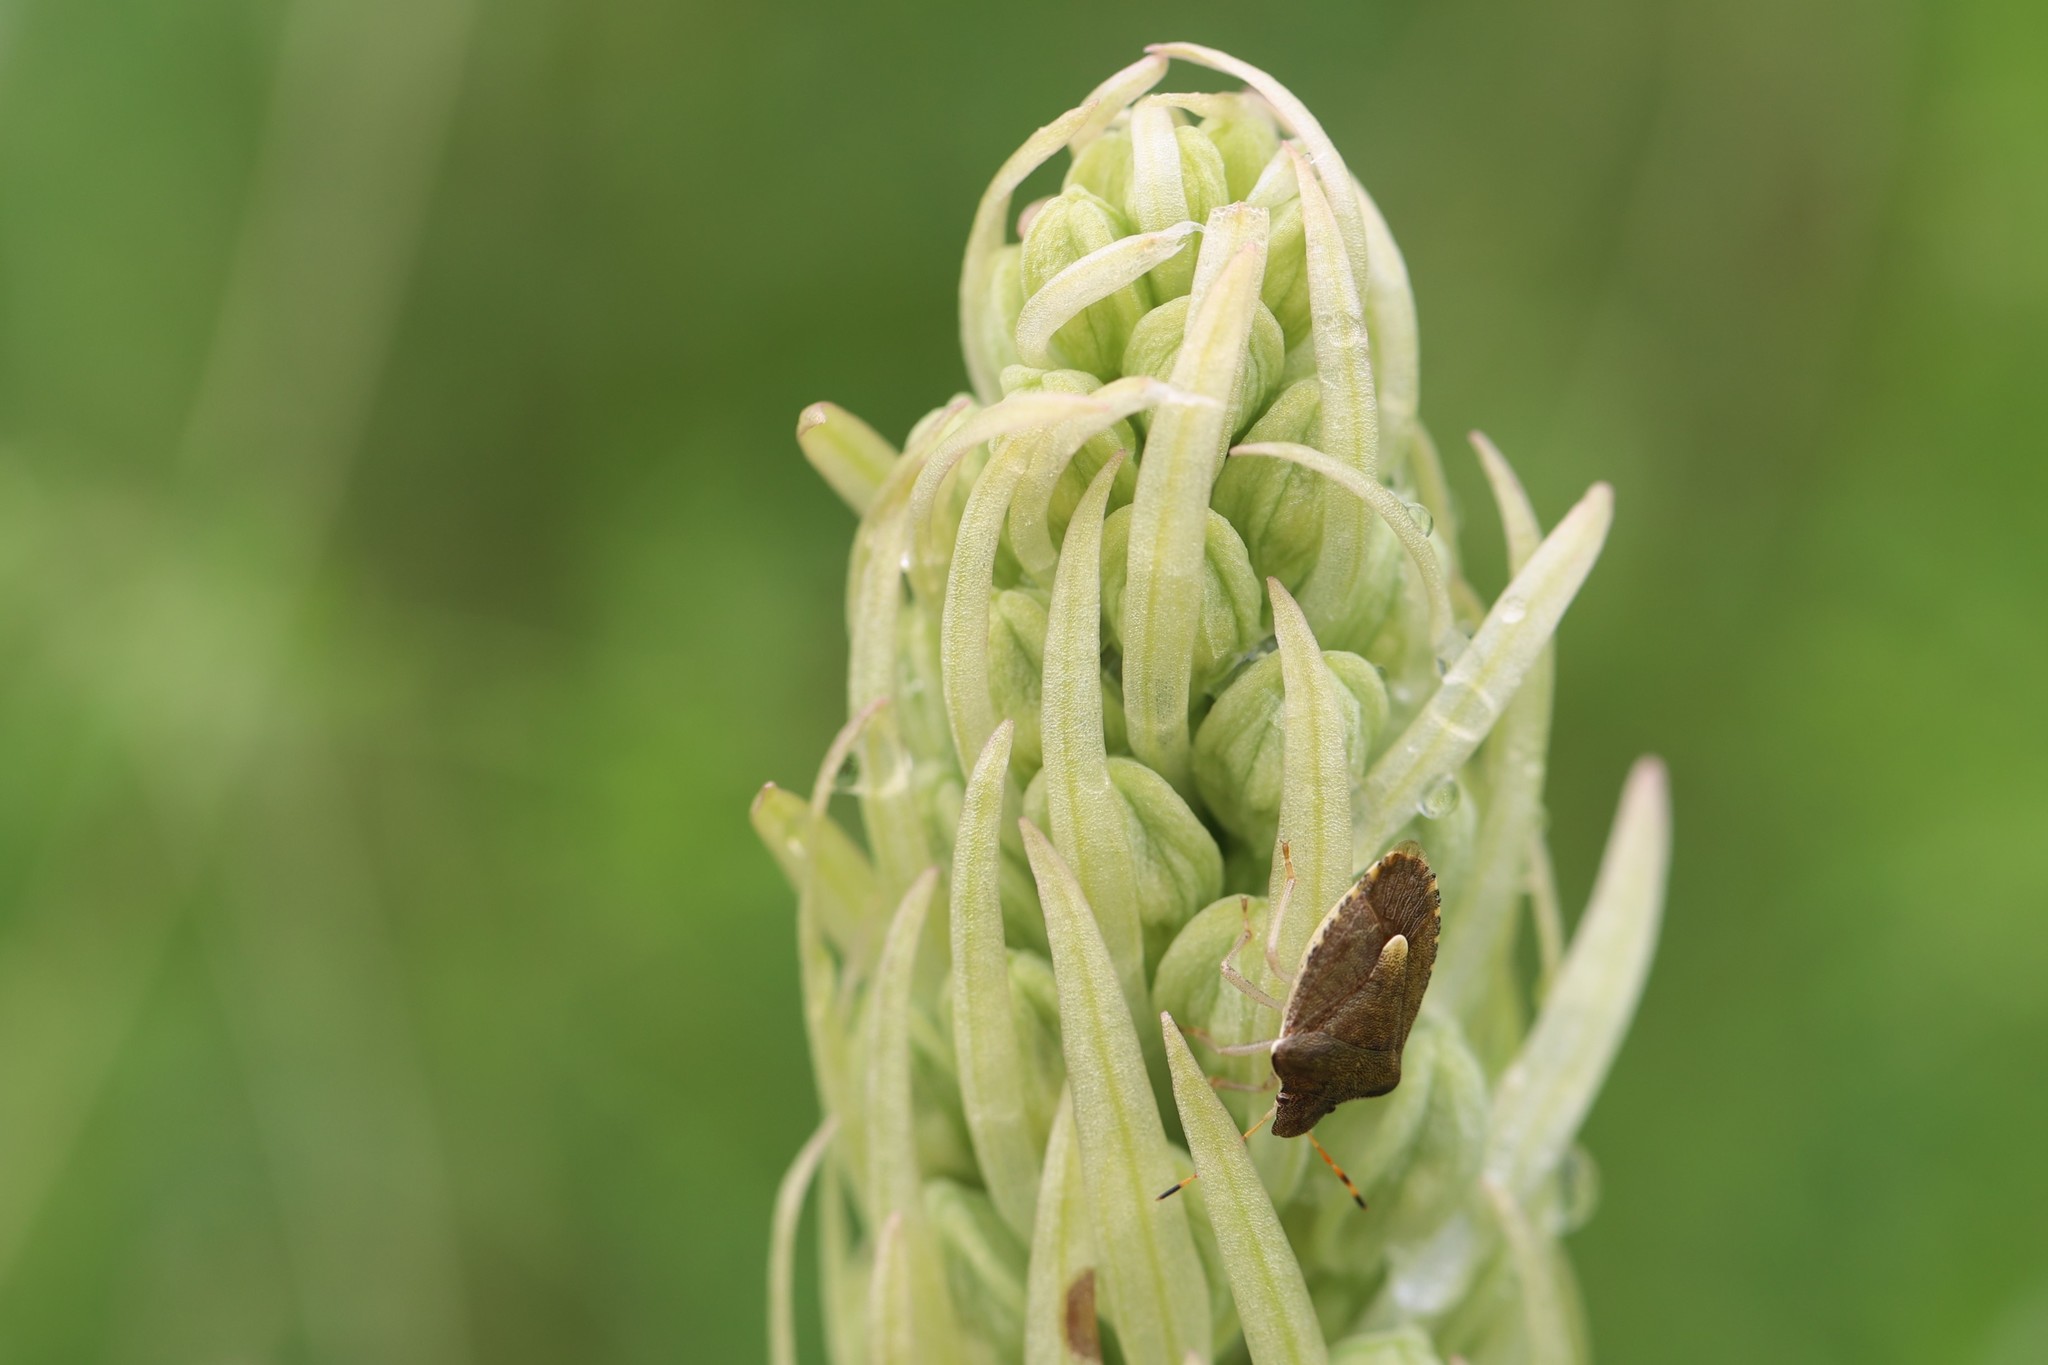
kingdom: Animalia
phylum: Arthropoda
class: Insecta
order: Hemiptera
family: Pentatomidae
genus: Holcostethus
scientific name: Holcostethus strictus
